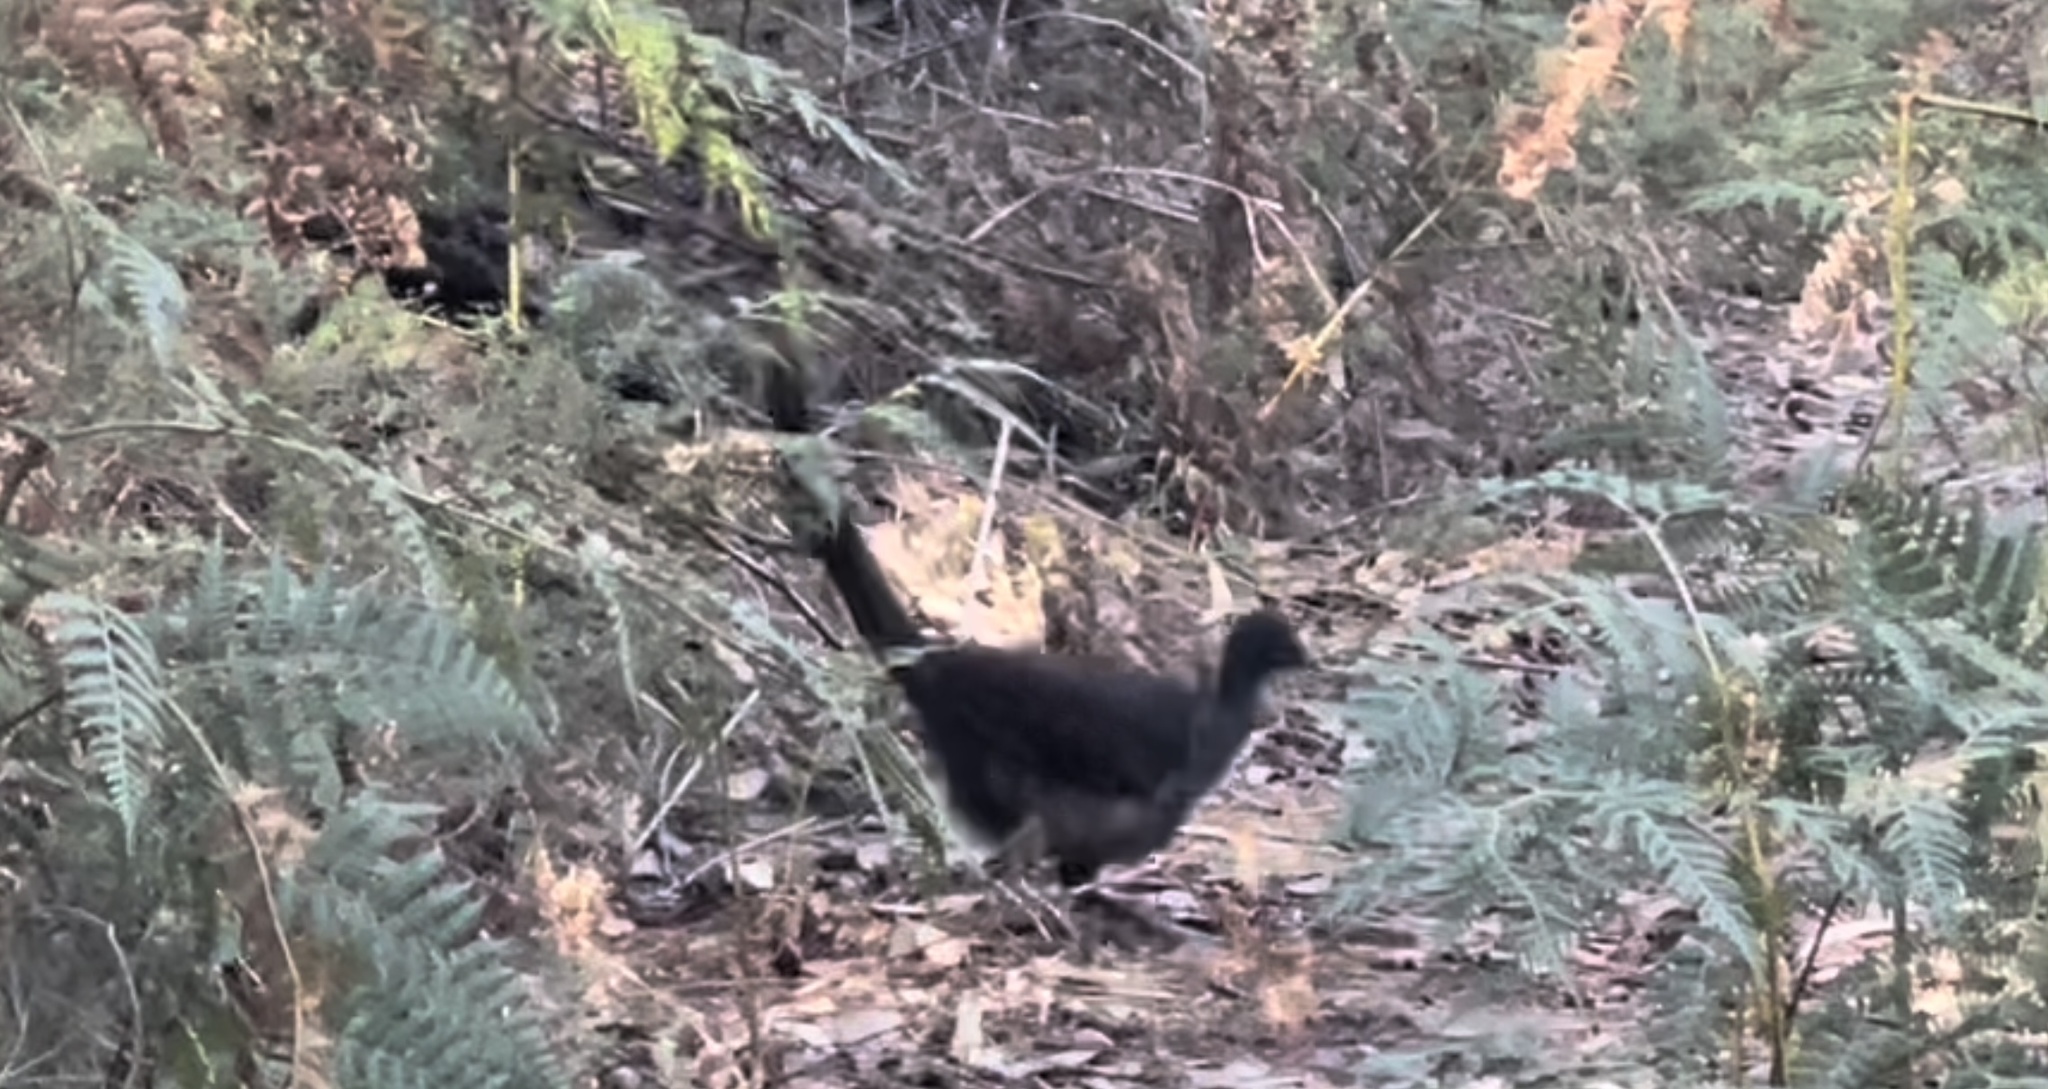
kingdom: Animalia
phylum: Chordata
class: Aves
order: Passeriformes
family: Menuridae
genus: Menura
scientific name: Menura novaehollandiae
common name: Superb lyrebird
